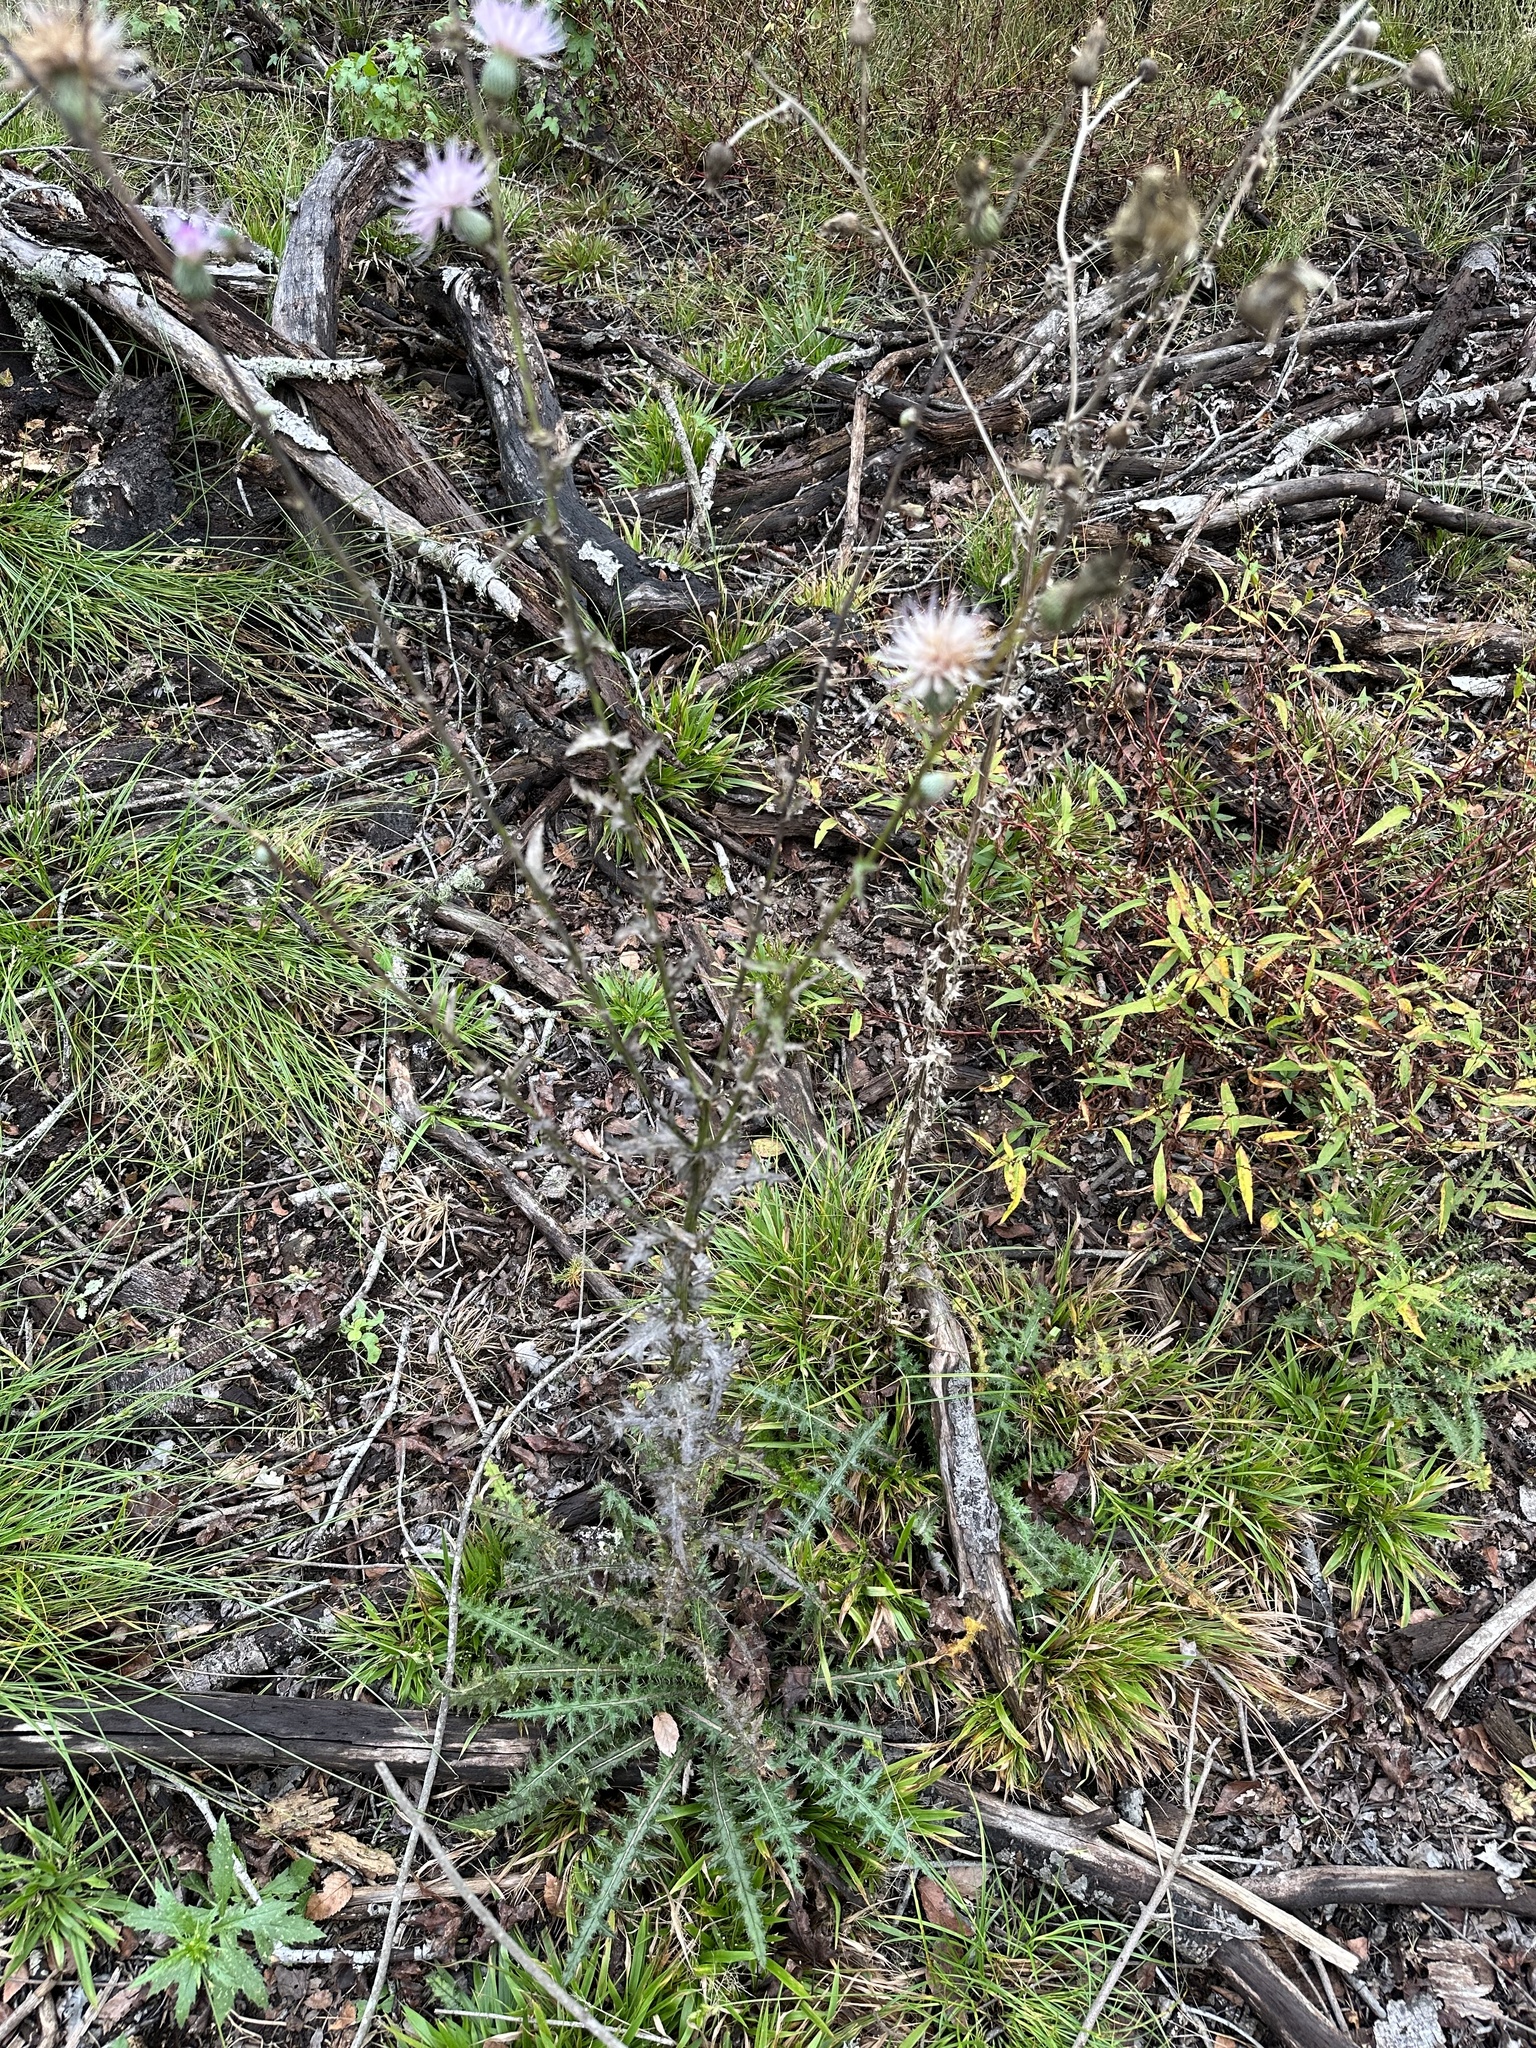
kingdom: Plantae
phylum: Tracheophyta
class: Magnoliopsida
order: Asterales
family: Asteraceae
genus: Cirsium
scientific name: Cirsium nuttalii
